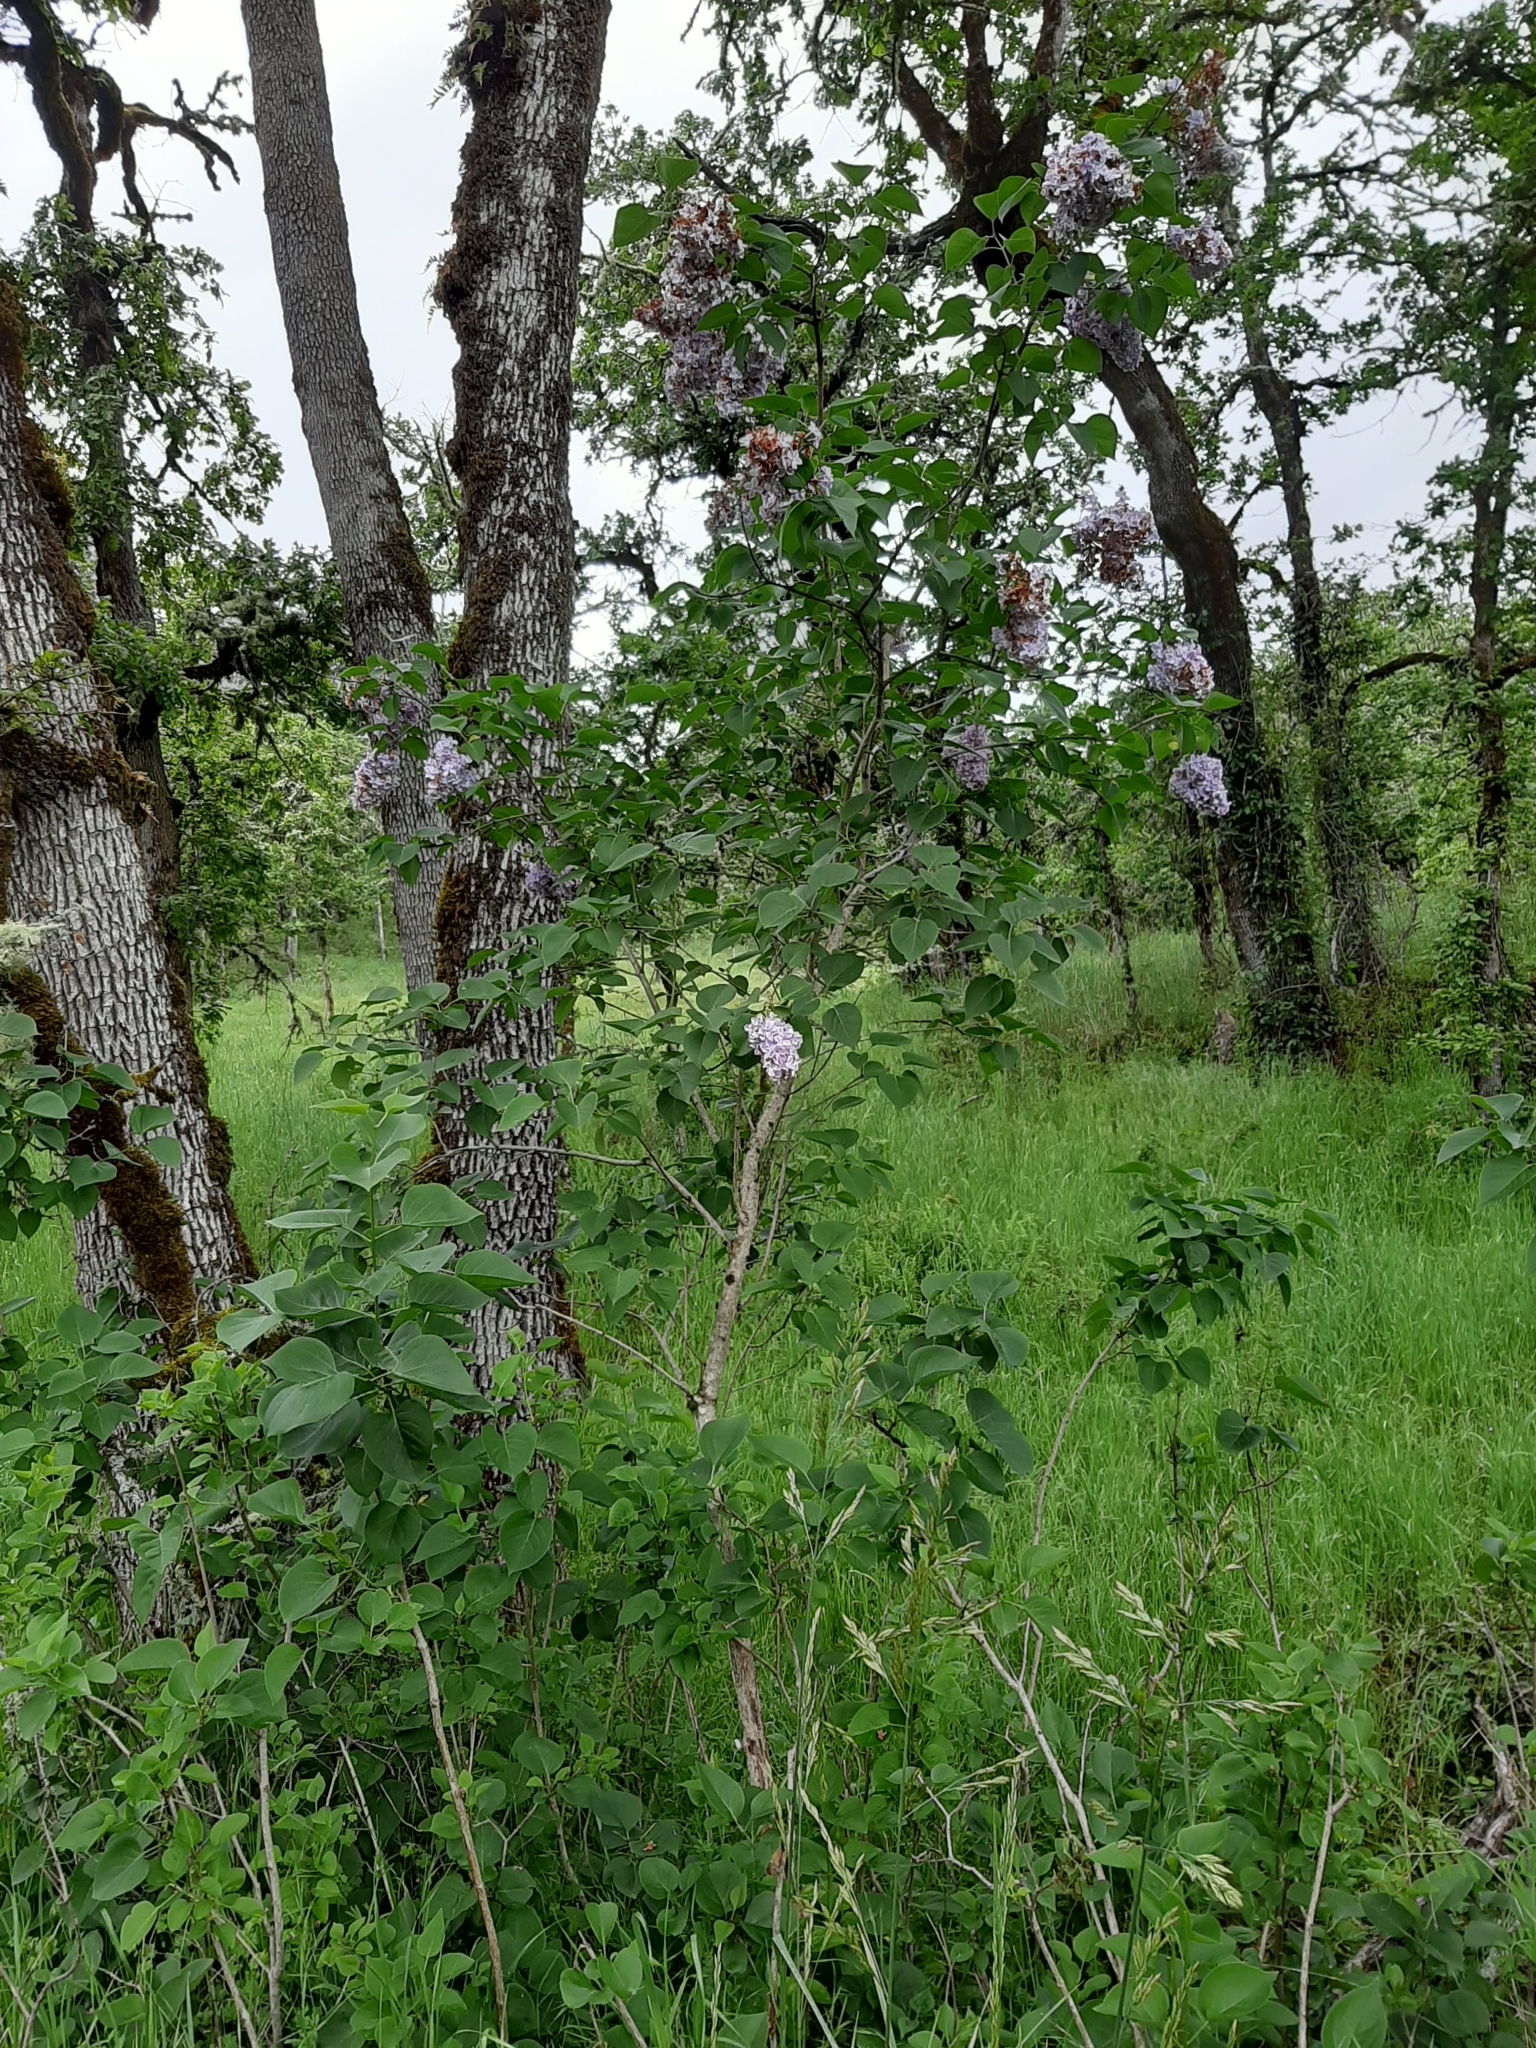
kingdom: Plantae
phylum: Tracheophyta
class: Magnoliopsida
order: Lamiales
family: Oleaceae
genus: Syringa
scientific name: Syringa vulgaris
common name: Common lilac
